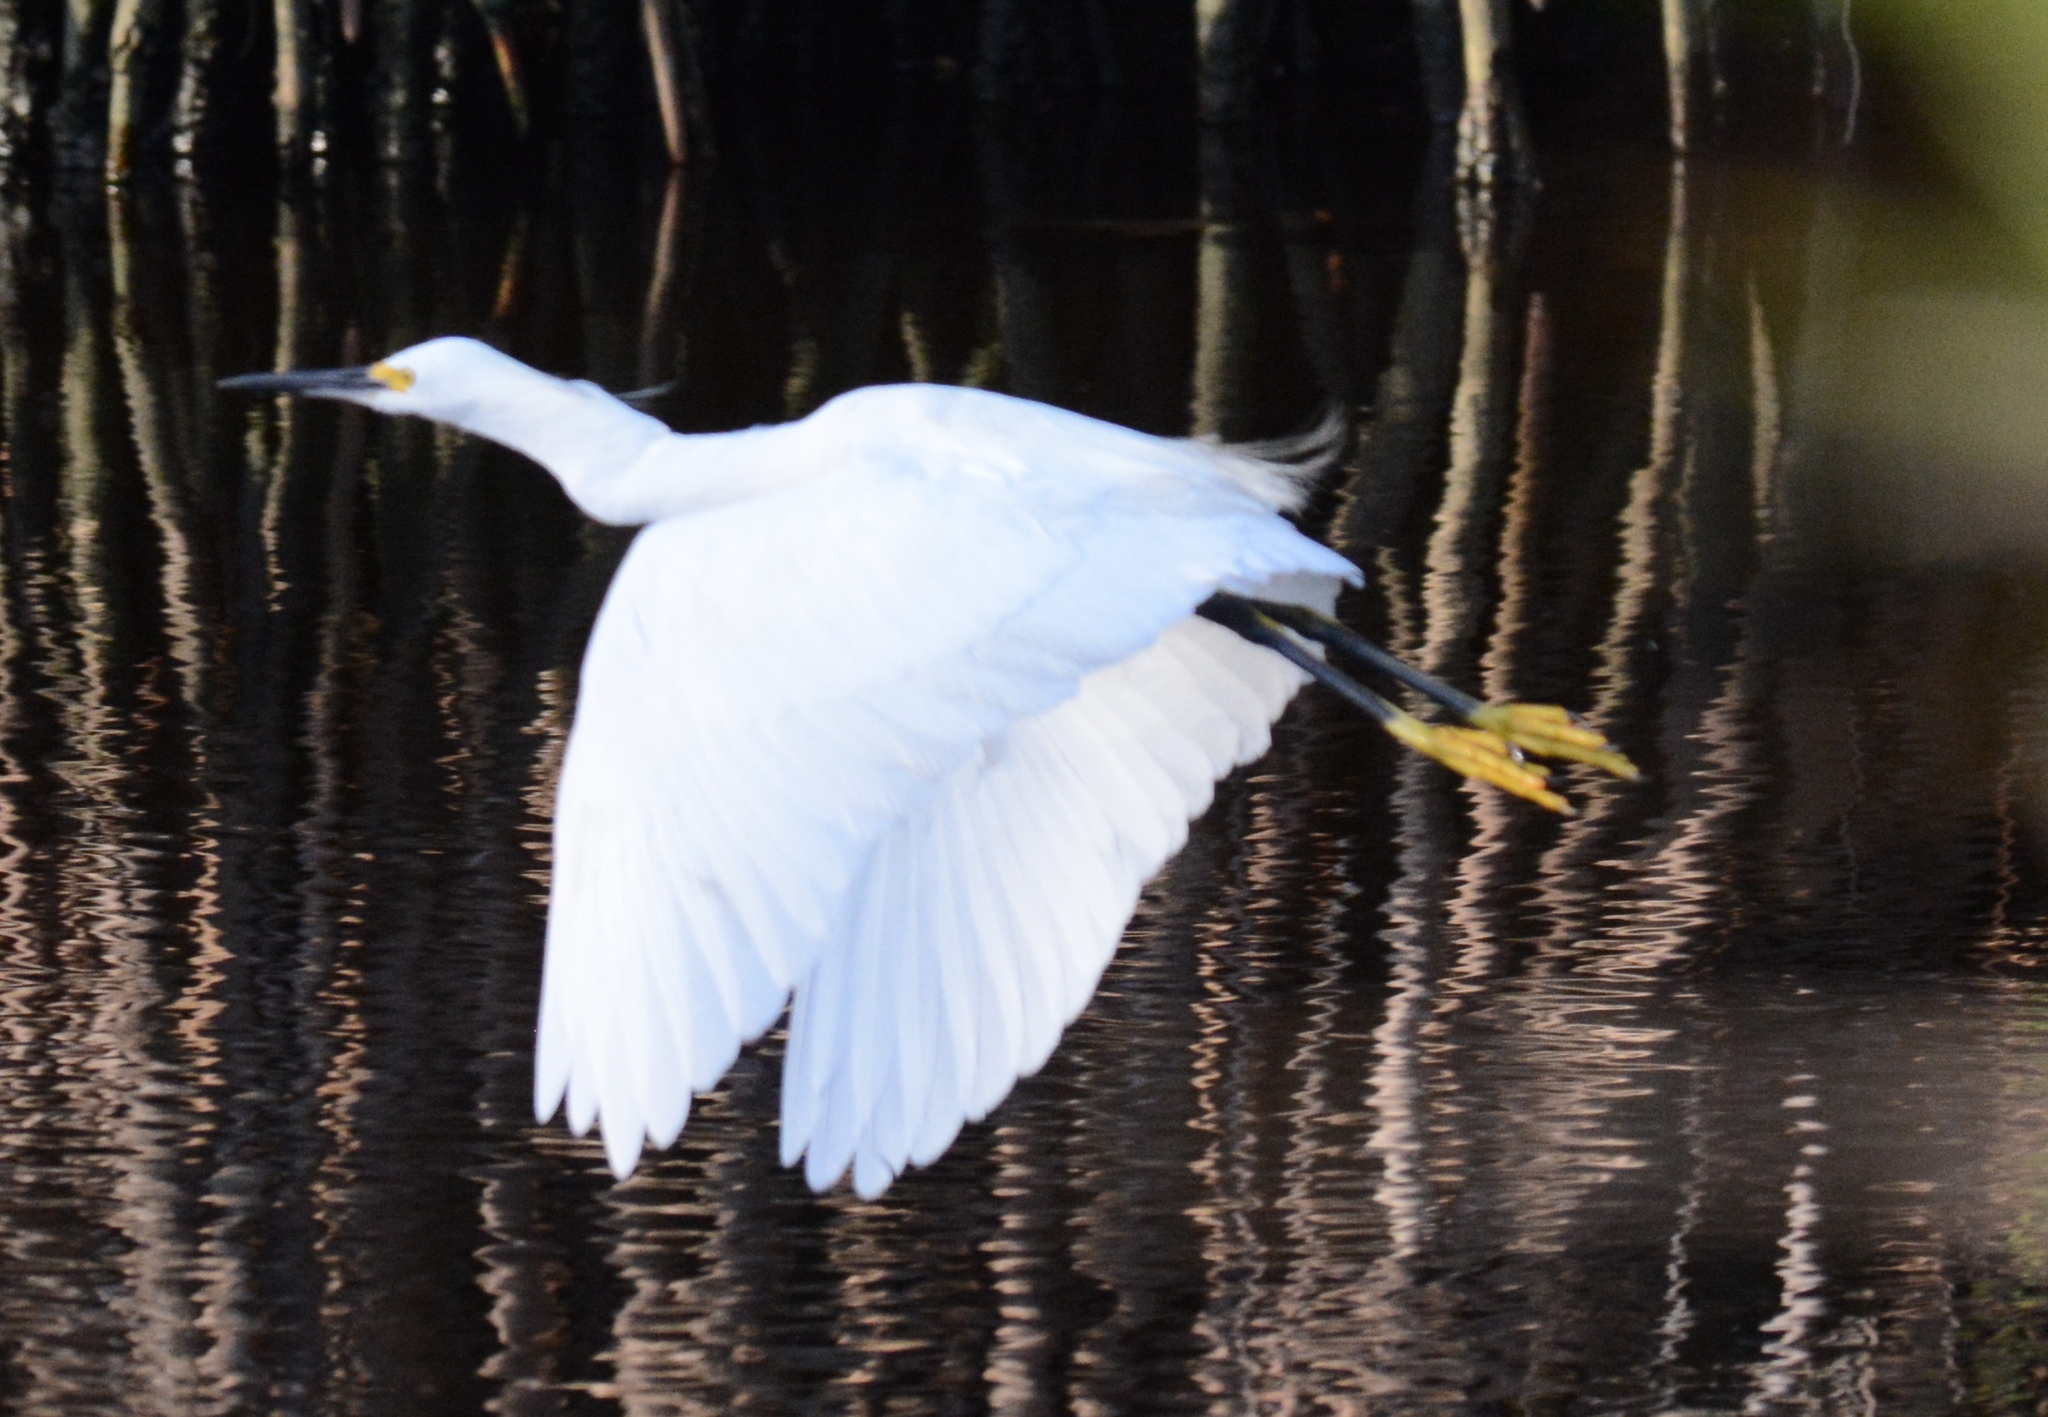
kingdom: Animalia
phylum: Chordata
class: Aves
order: Pelecaniformes
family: Ardeidae
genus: Egretta
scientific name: Egretta thula
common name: Snowy egret
